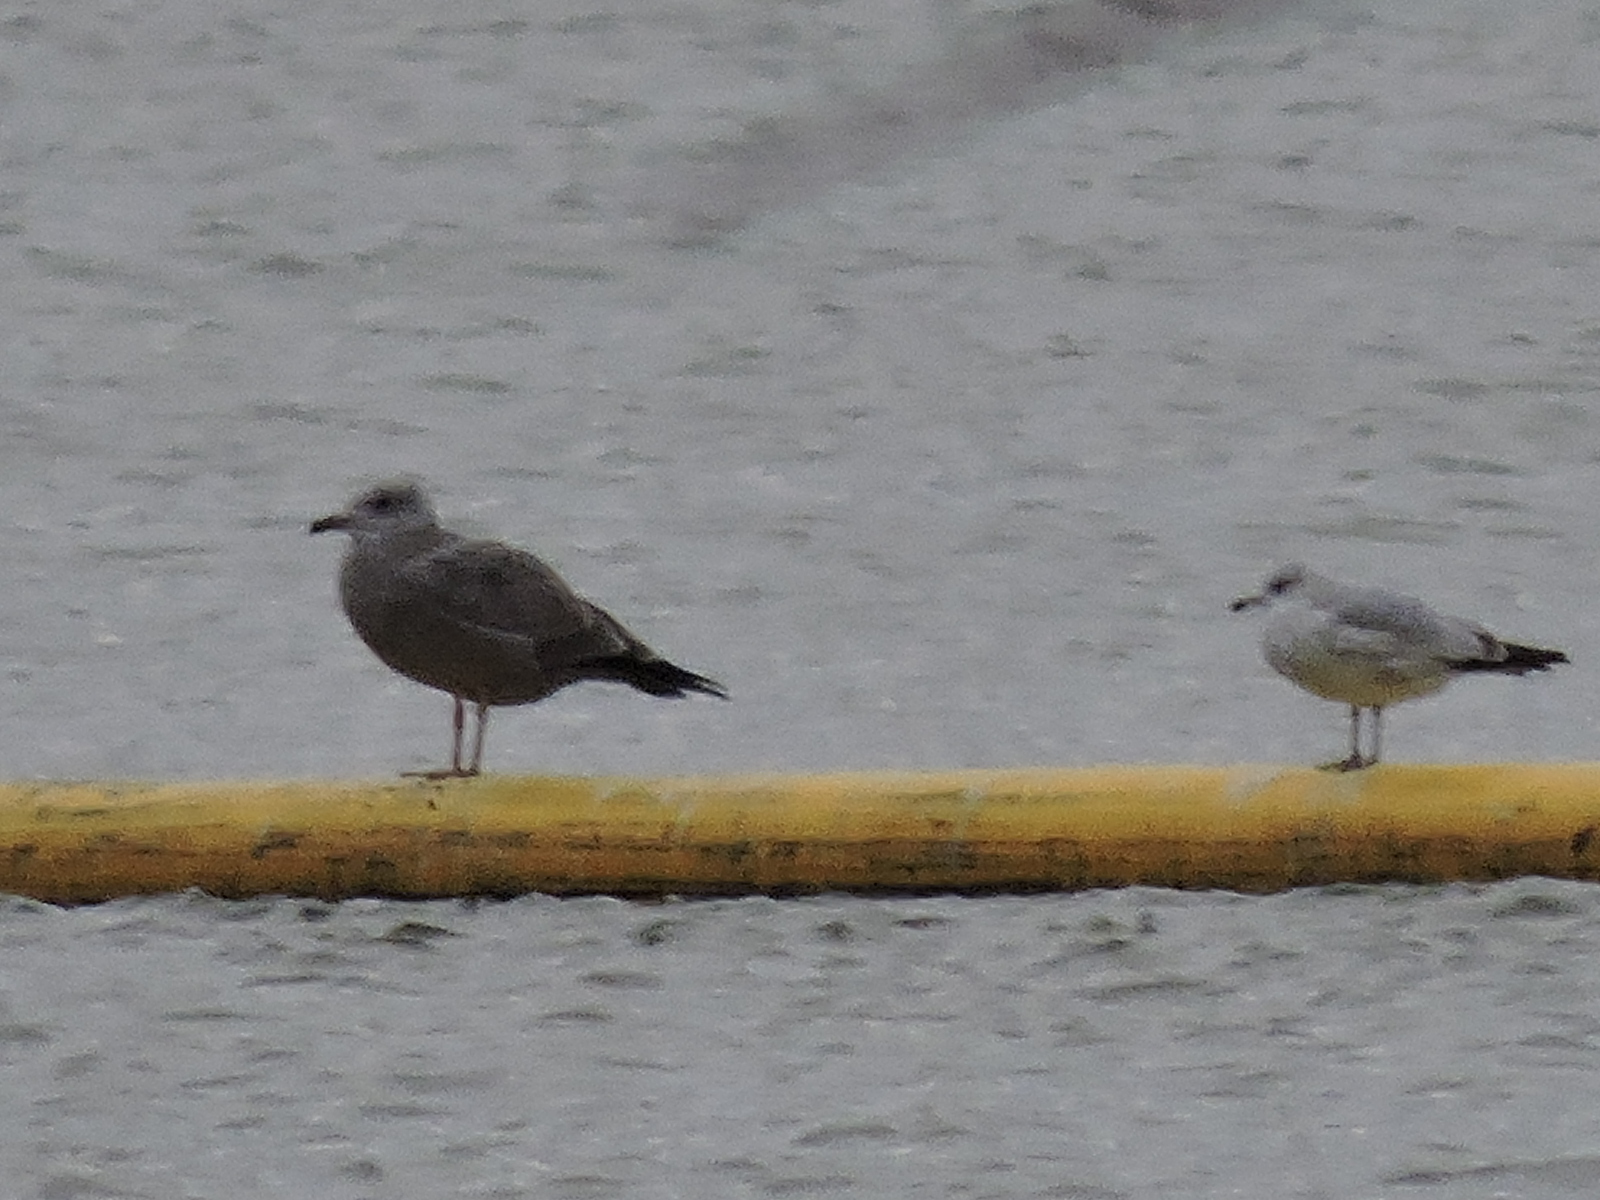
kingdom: Animalia
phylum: Chordata
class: Aves
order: Charadriiformes
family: Laridae
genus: Larus
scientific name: Larus argentatus
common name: Herring gull
